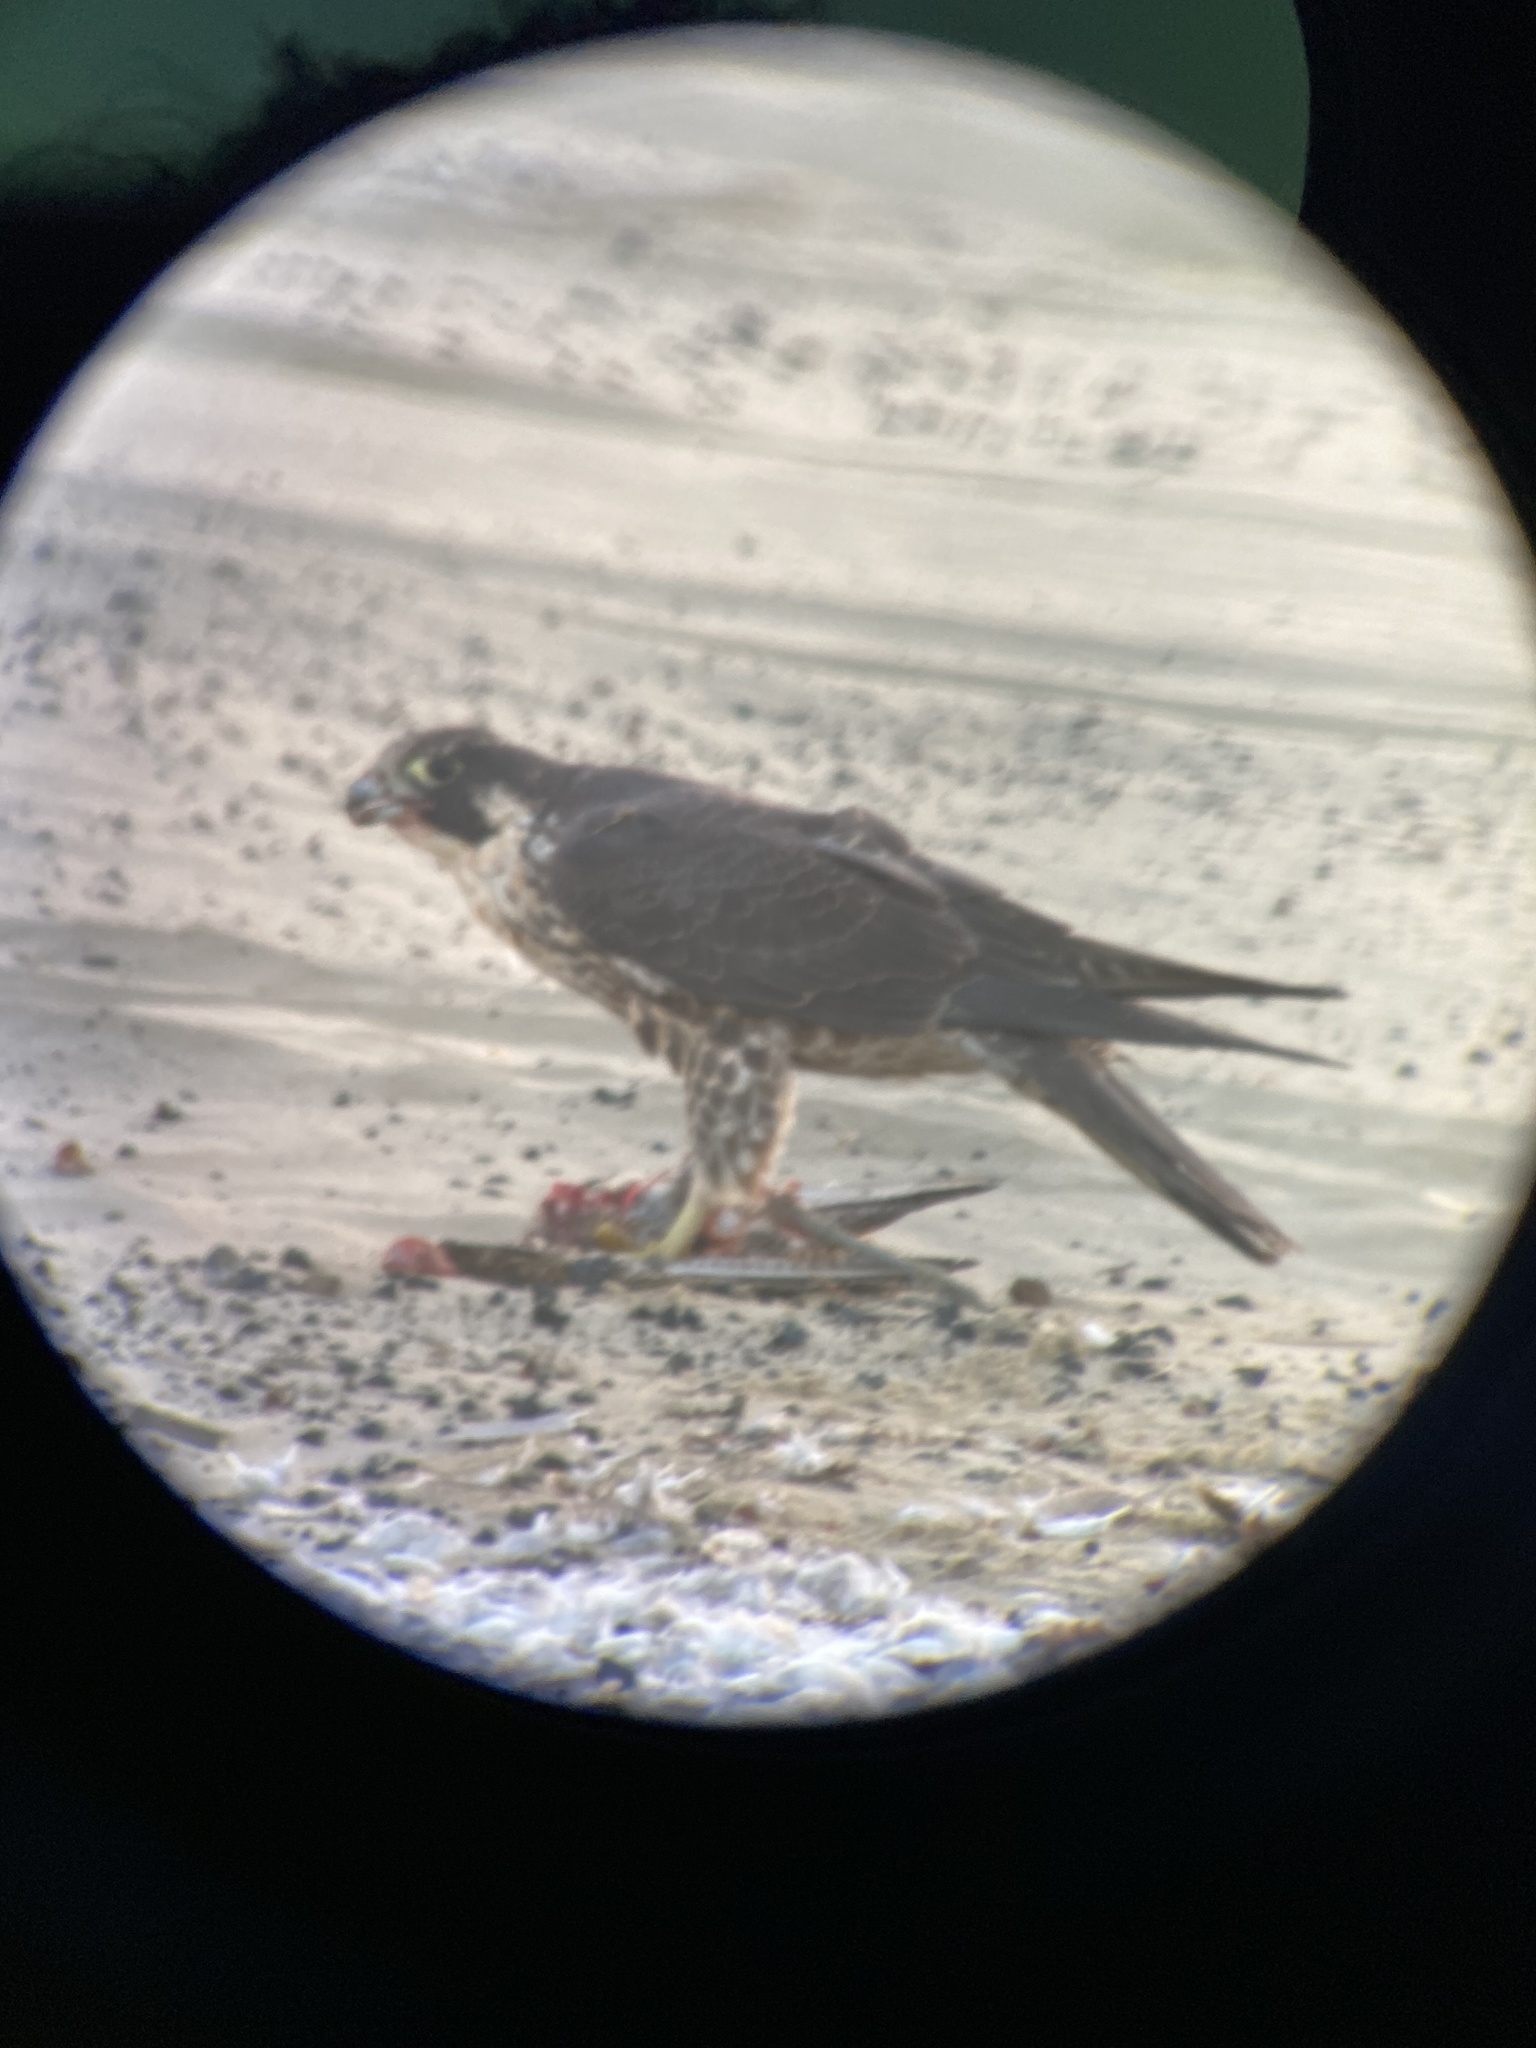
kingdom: Animalia
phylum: Chordata
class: Aves
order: Falconiformes
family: Falconidae
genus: Falco
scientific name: Falco peregrinus
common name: Peregrine falcon
